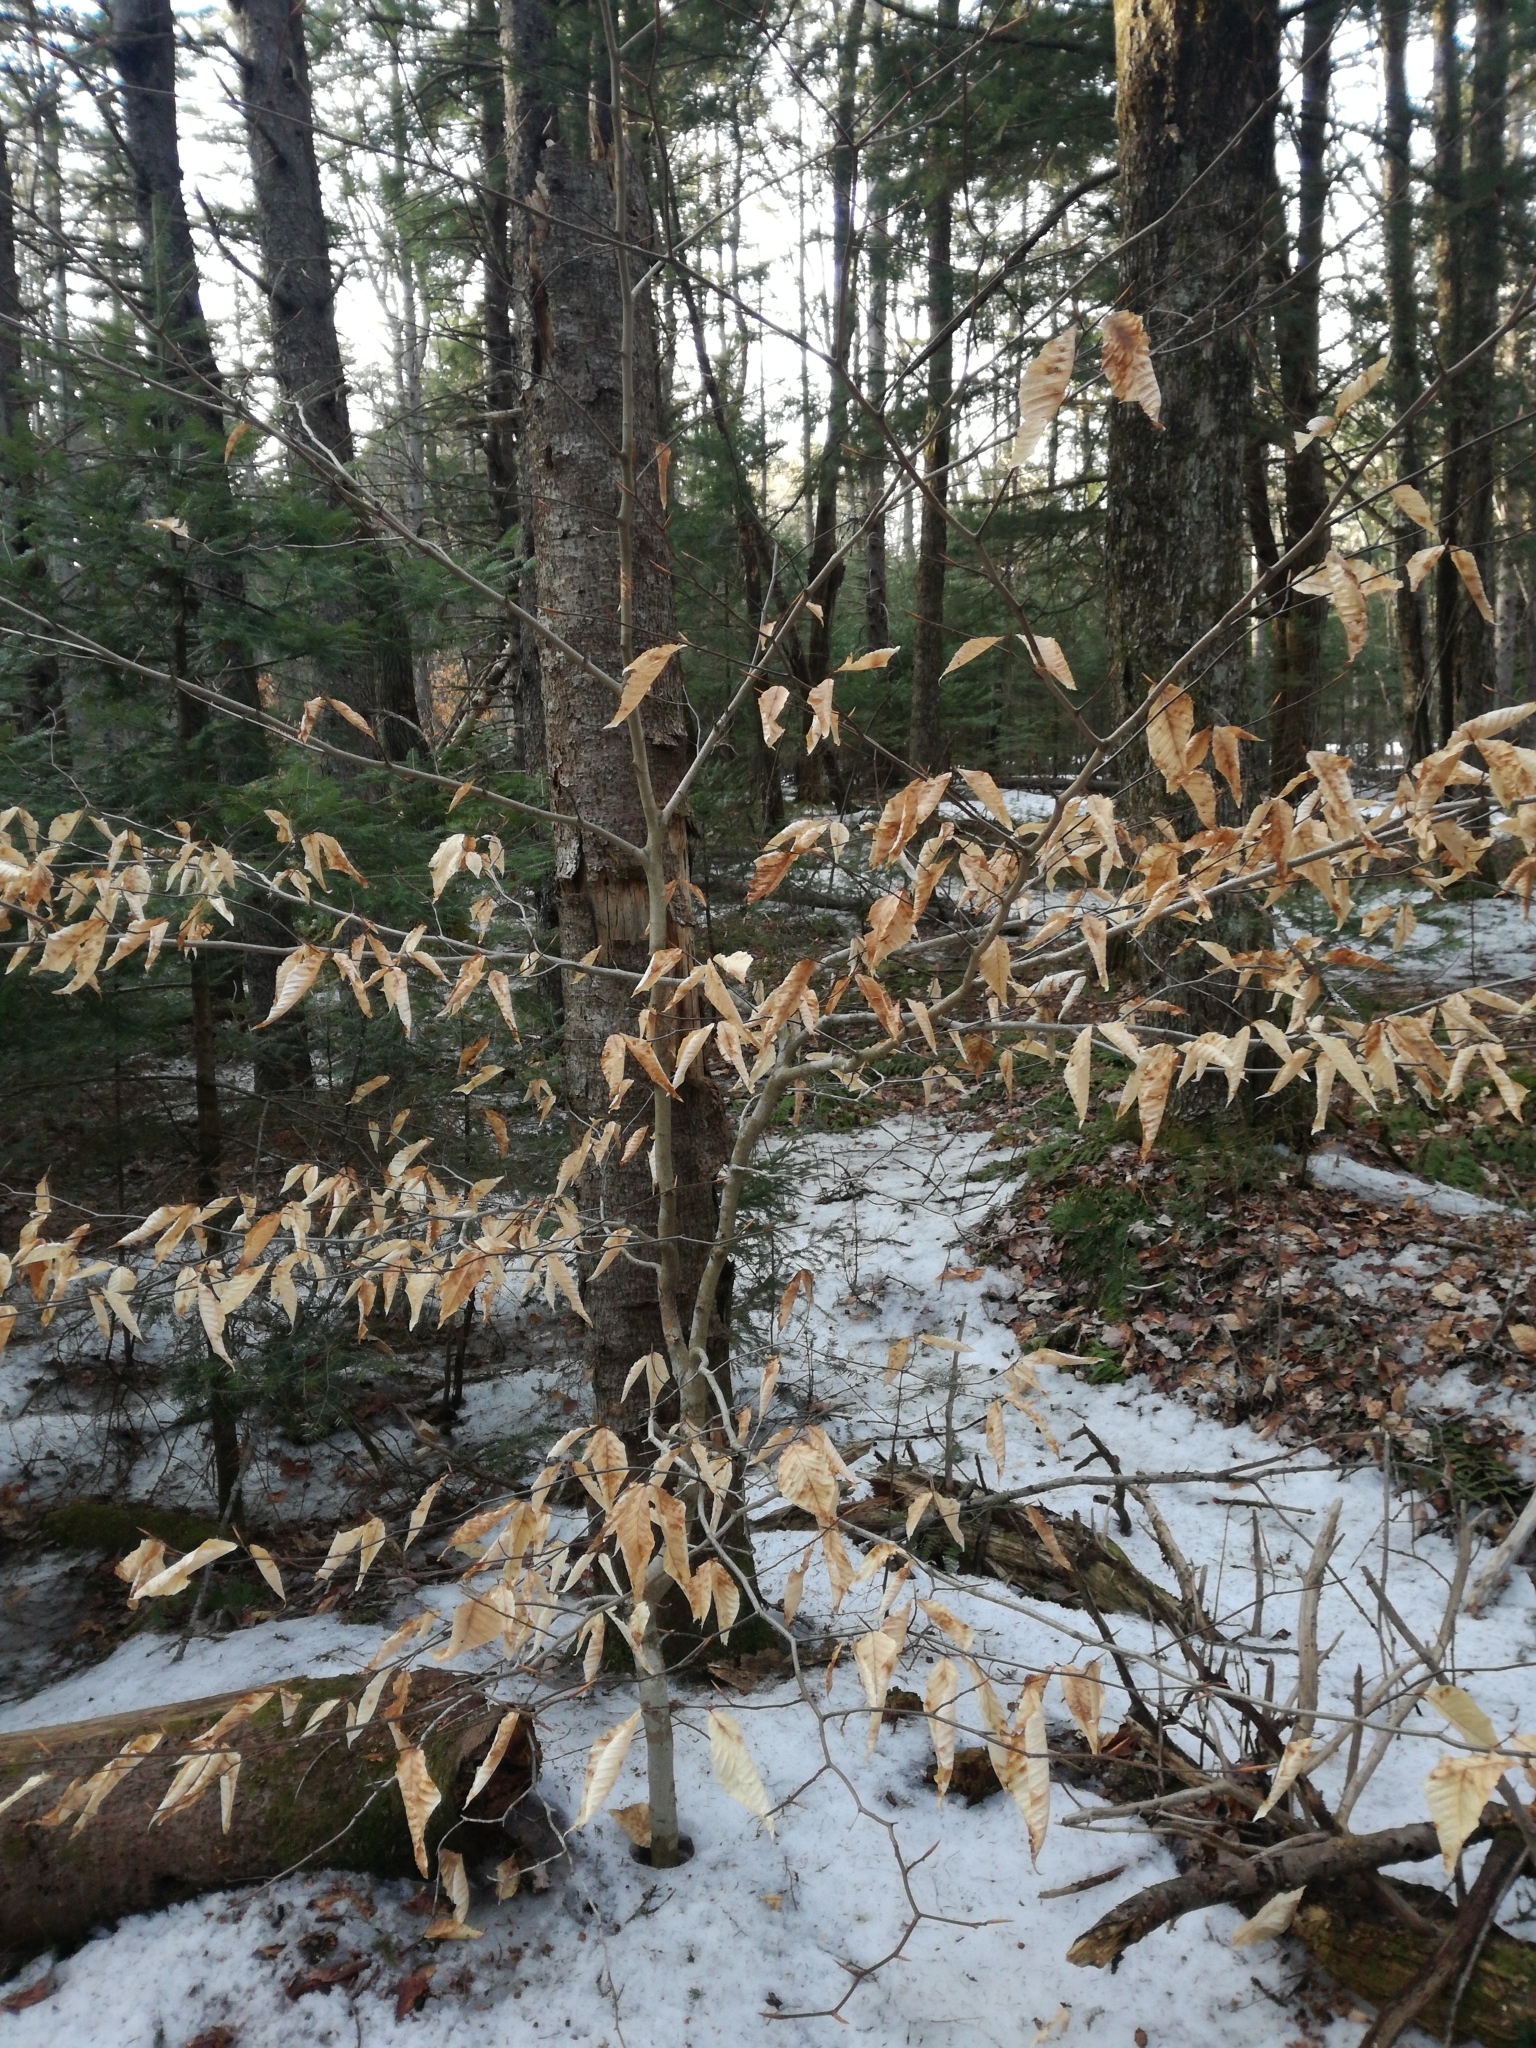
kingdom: Plantae
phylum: Tracheophyta
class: Magnoliopsida
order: Fagales
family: Fagaceae
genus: Fagus
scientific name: Fagus grandifolia
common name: American beech
